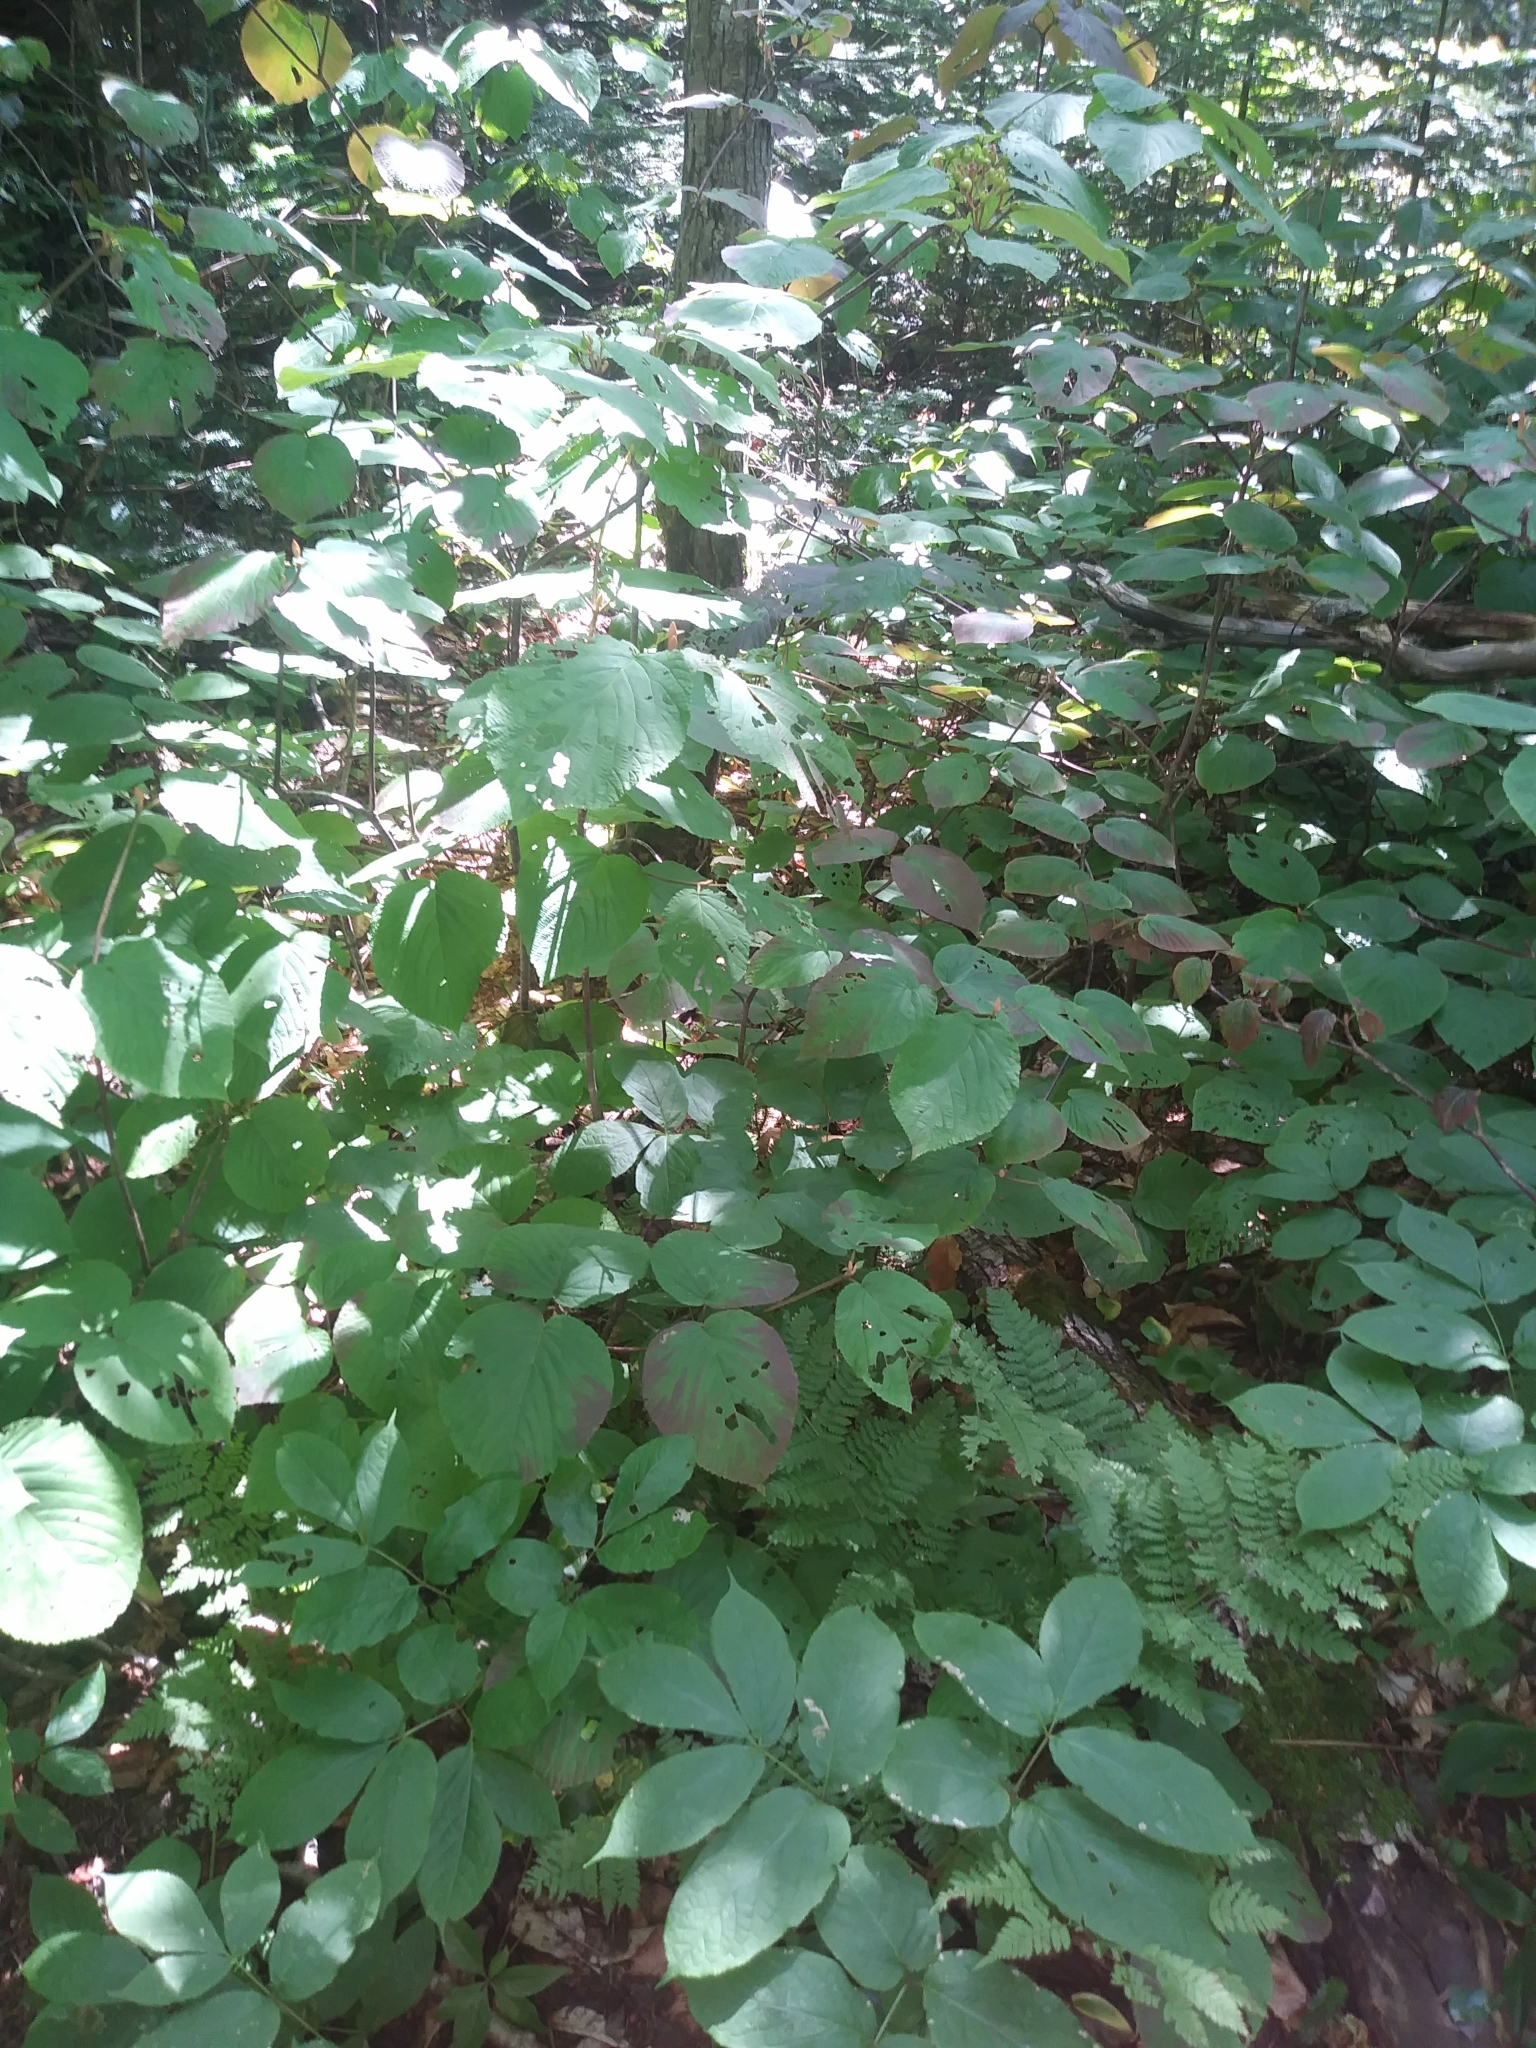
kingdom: Plantae
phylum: Tracheophyta
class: Magnoliopsida
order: Dipsacales
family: Viburnaceae
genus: Viburnum
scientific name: Viburnum lantanoides
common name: Hobblebush
